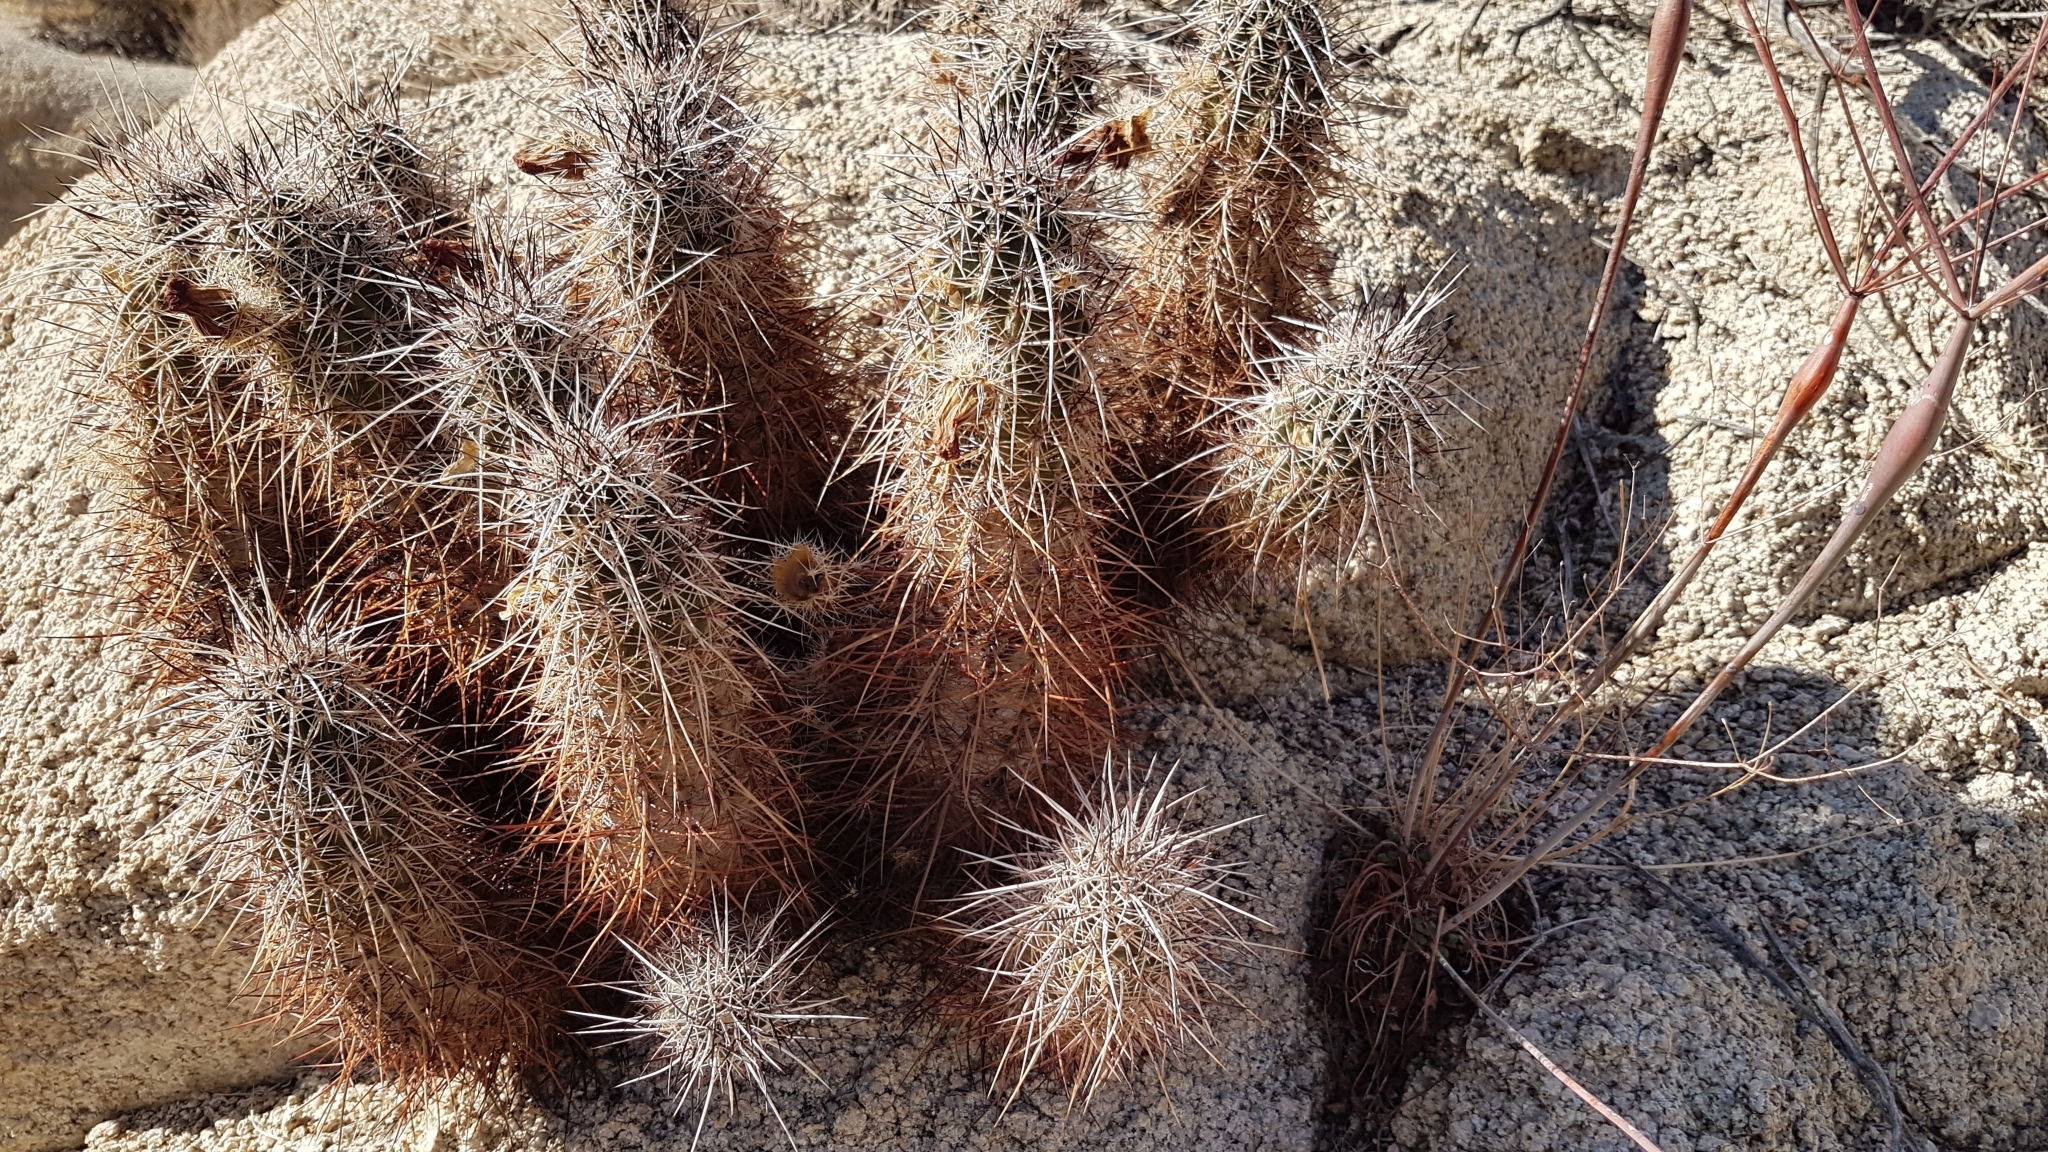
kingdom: Plantae
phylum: Tracheophyta
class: Magnoliopsida
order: Caryophyllales
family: Cactaceae
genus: Echinocereus
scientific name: Echinocereus engelmannii
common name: Engelmann's hedgehog cactus
